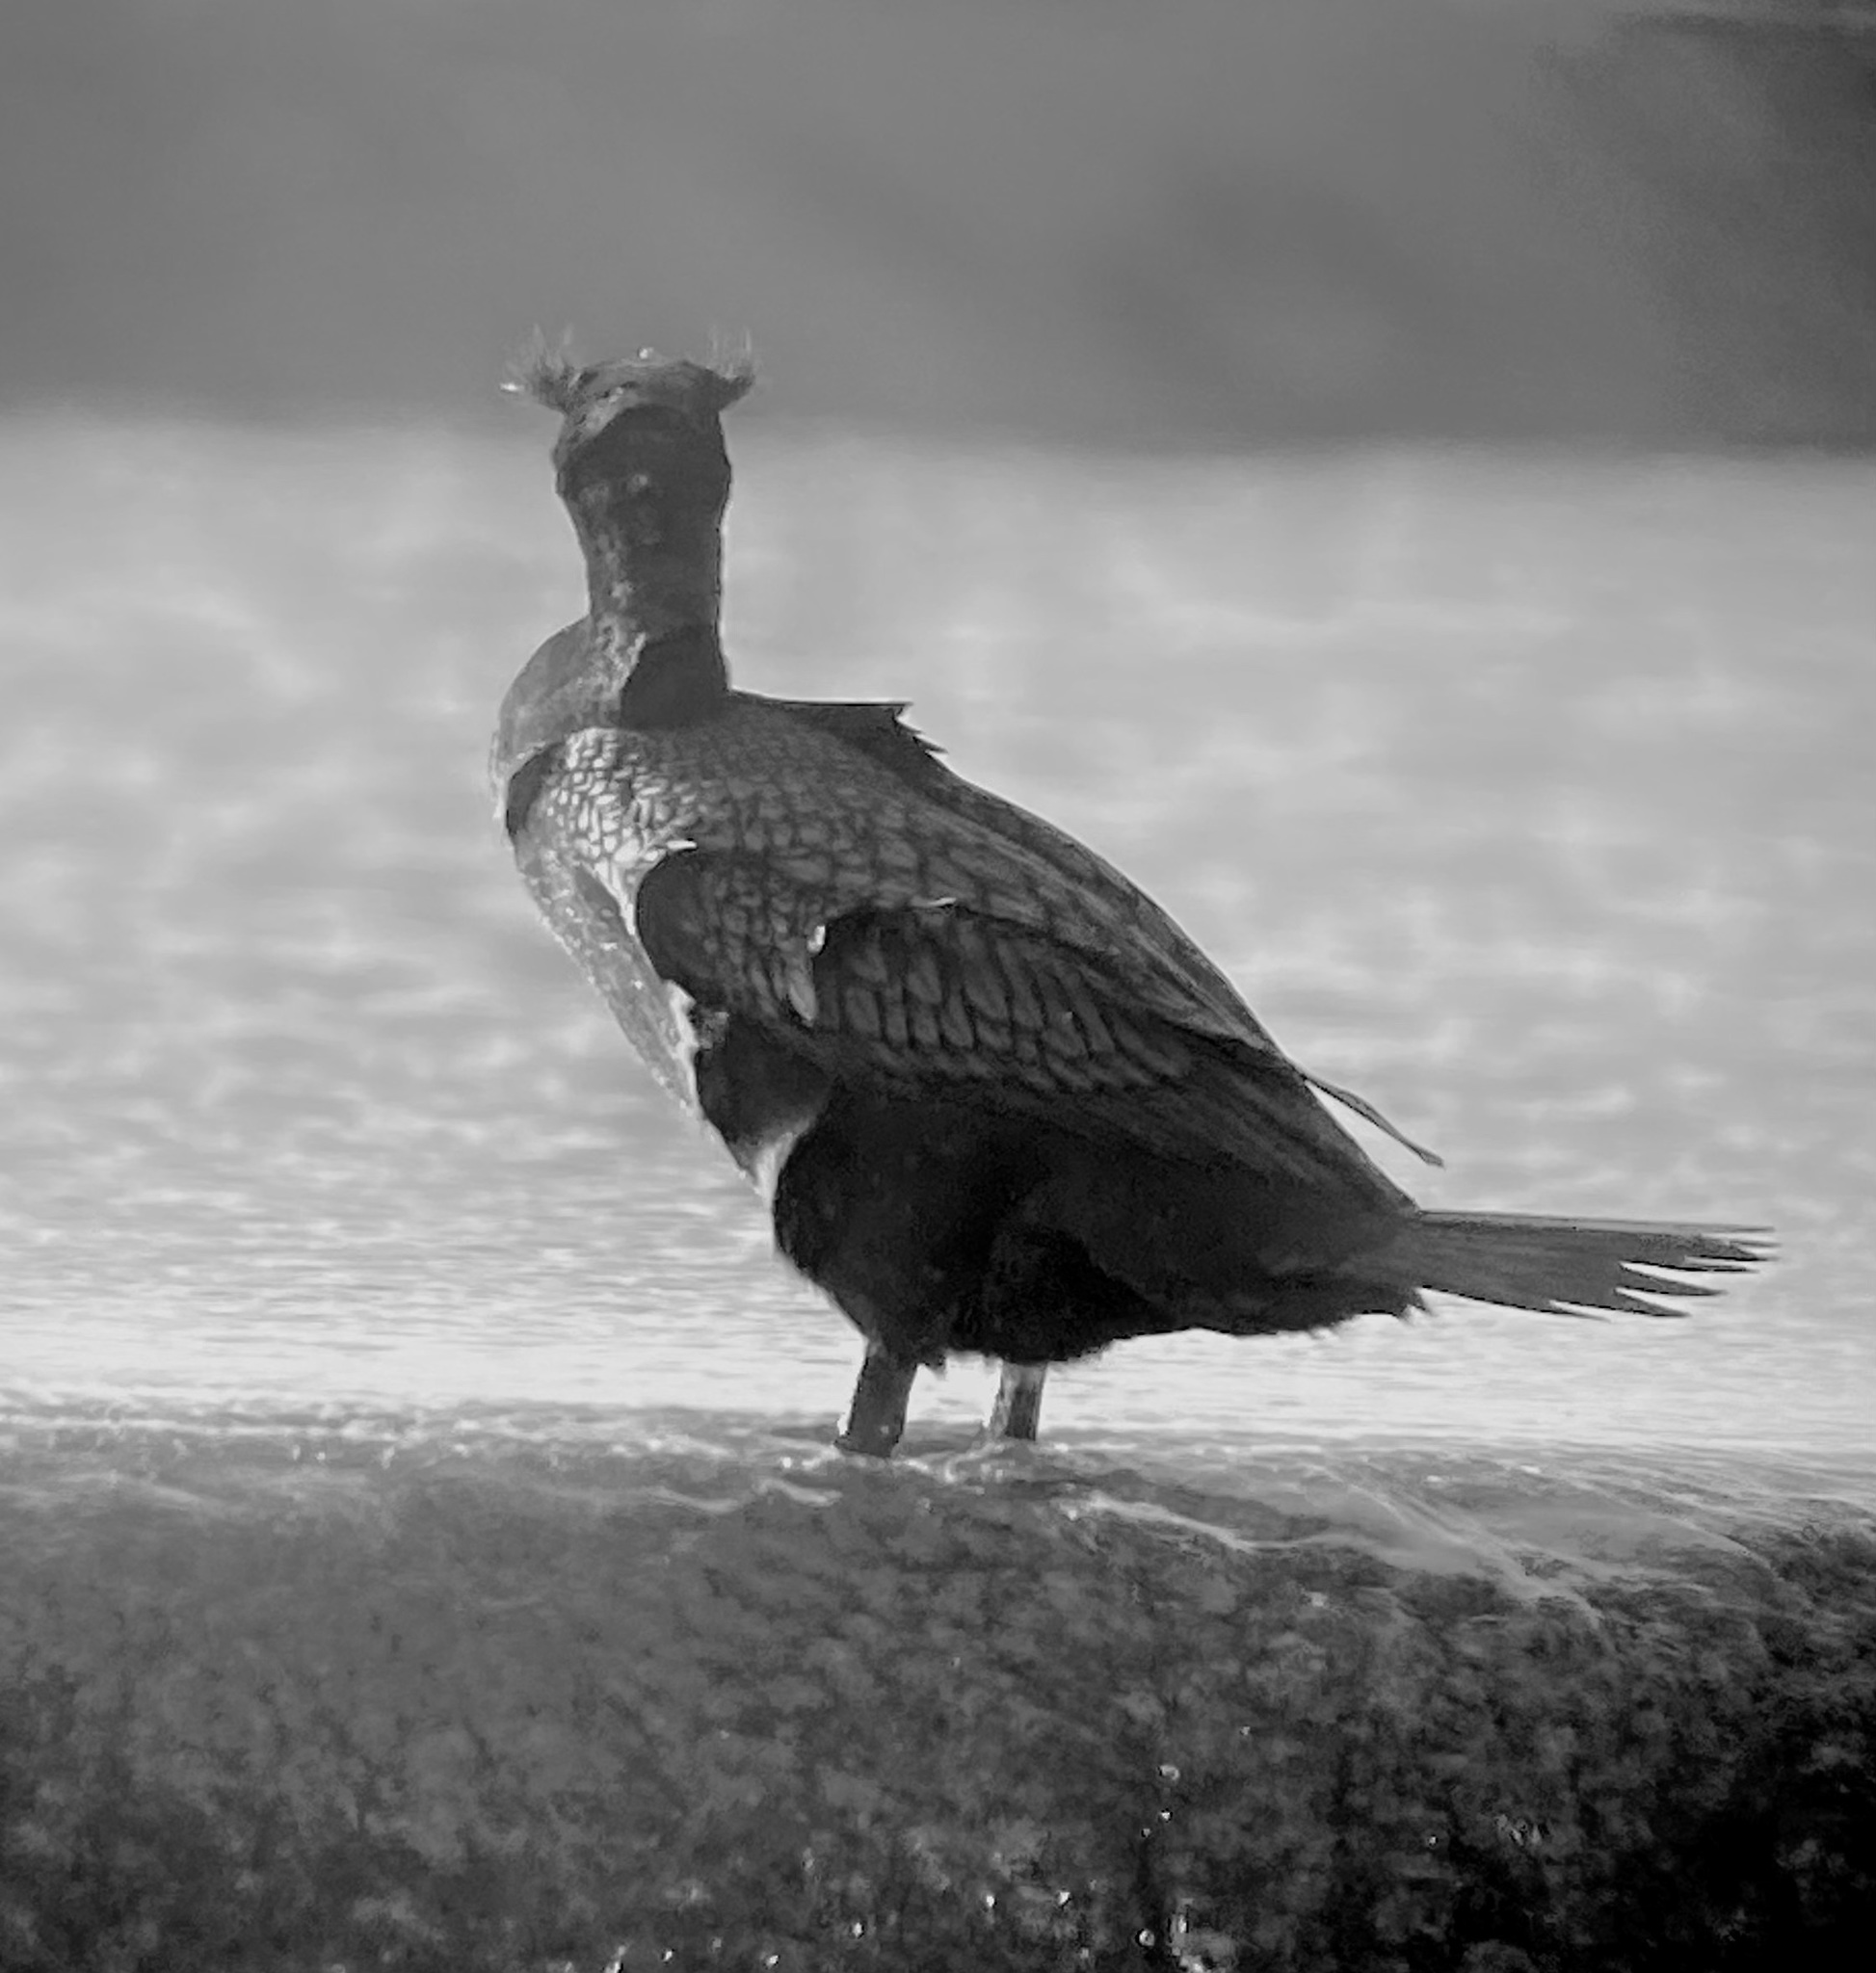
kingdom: Animalia
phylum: Chordata
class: Aves
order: Suliformes
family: Phalacrocoracidae
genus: Phalacrocorax
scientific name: Phalacrocorax auritus
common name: Double-crested cormorant
